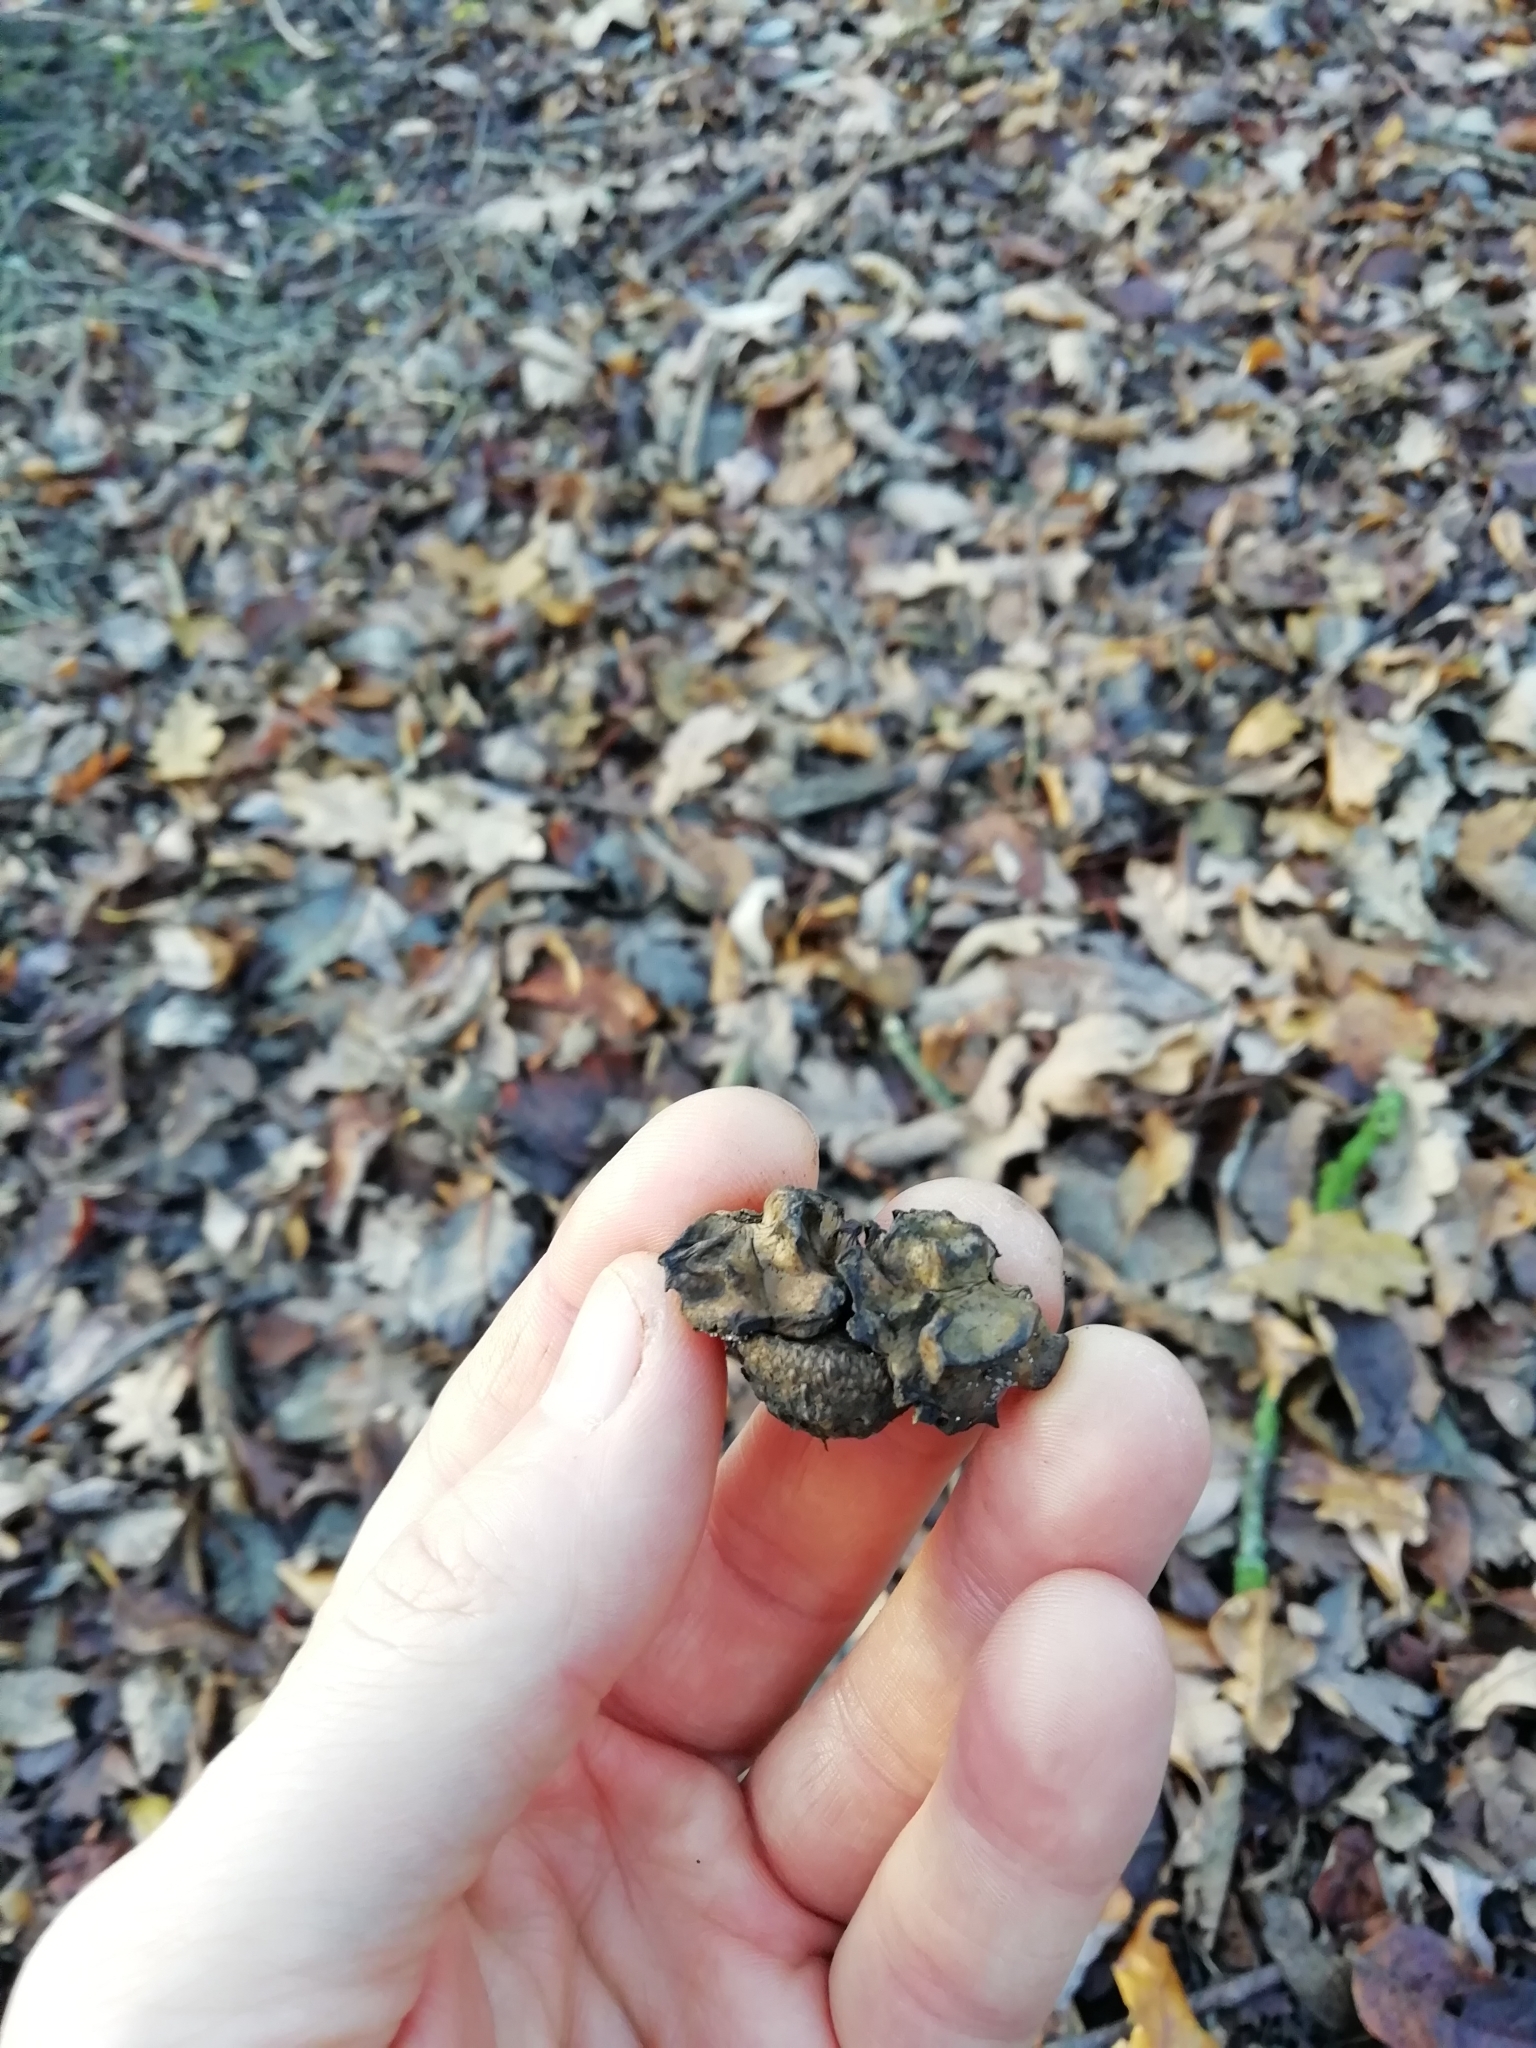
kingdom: Animalia
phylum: Arthropoda
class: Insecta
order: Hymenoptera
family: Cynipidae
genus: Andricus
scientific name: Andricus quercuscalicis
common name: Knopper gall
